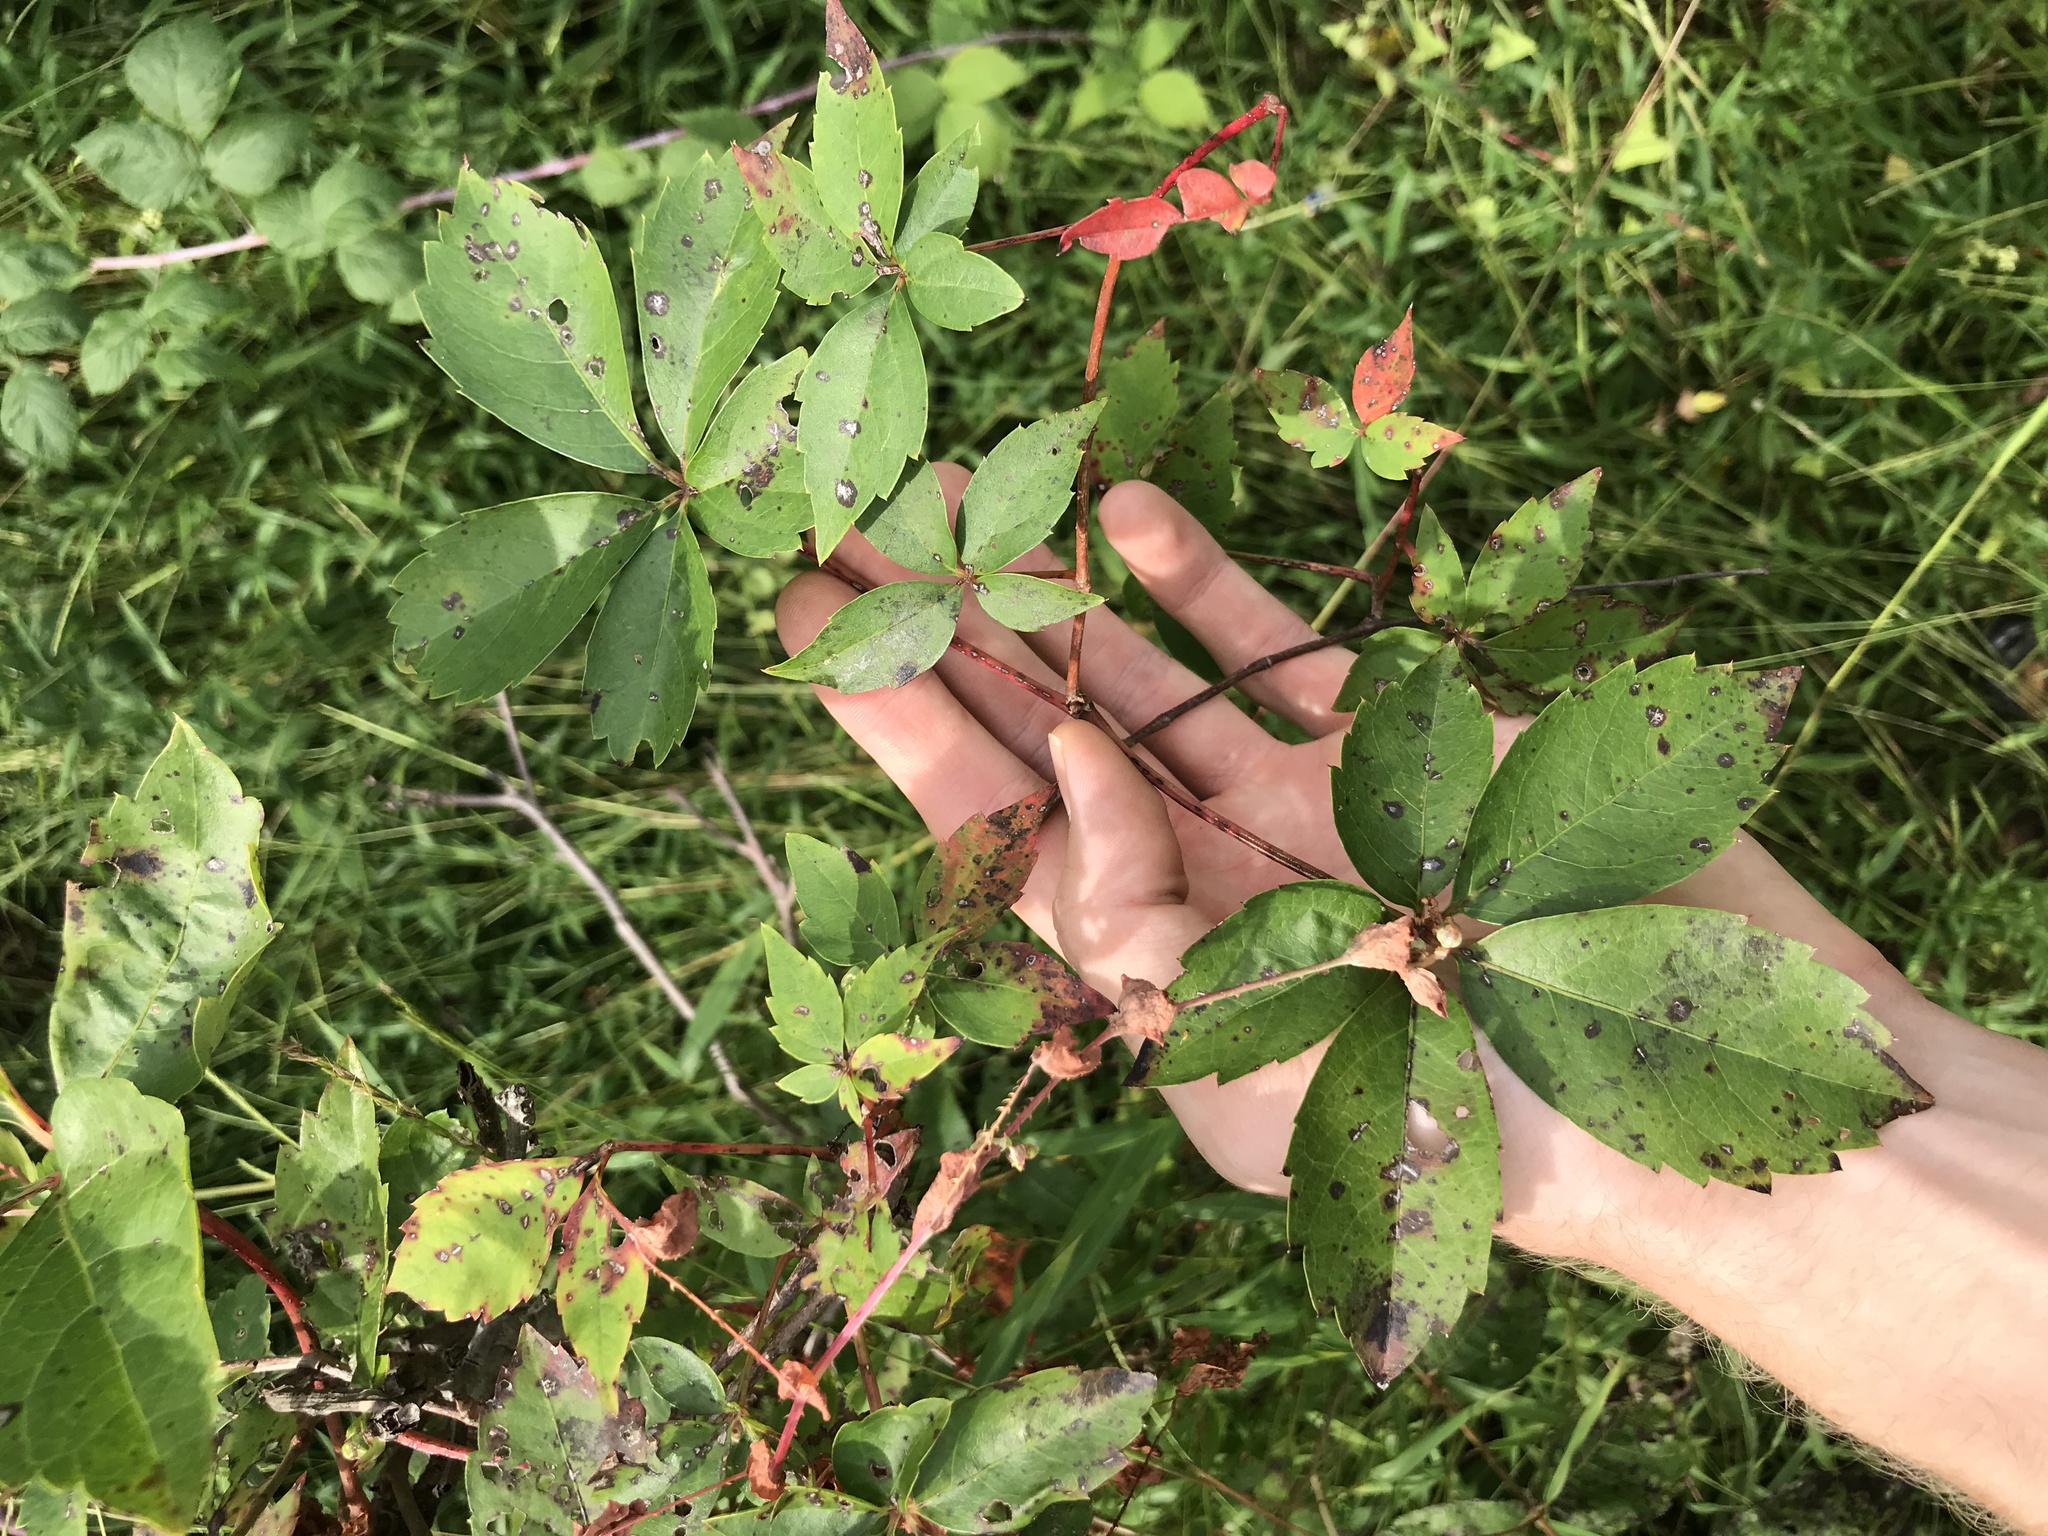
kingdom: Plantae
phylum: Tracheophyta
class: Magnoliopsida
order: Vitales
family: Vitaceae
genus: Parthenocissus
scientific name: Parthenocissus quinquefolia
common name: Virginia-creeper
